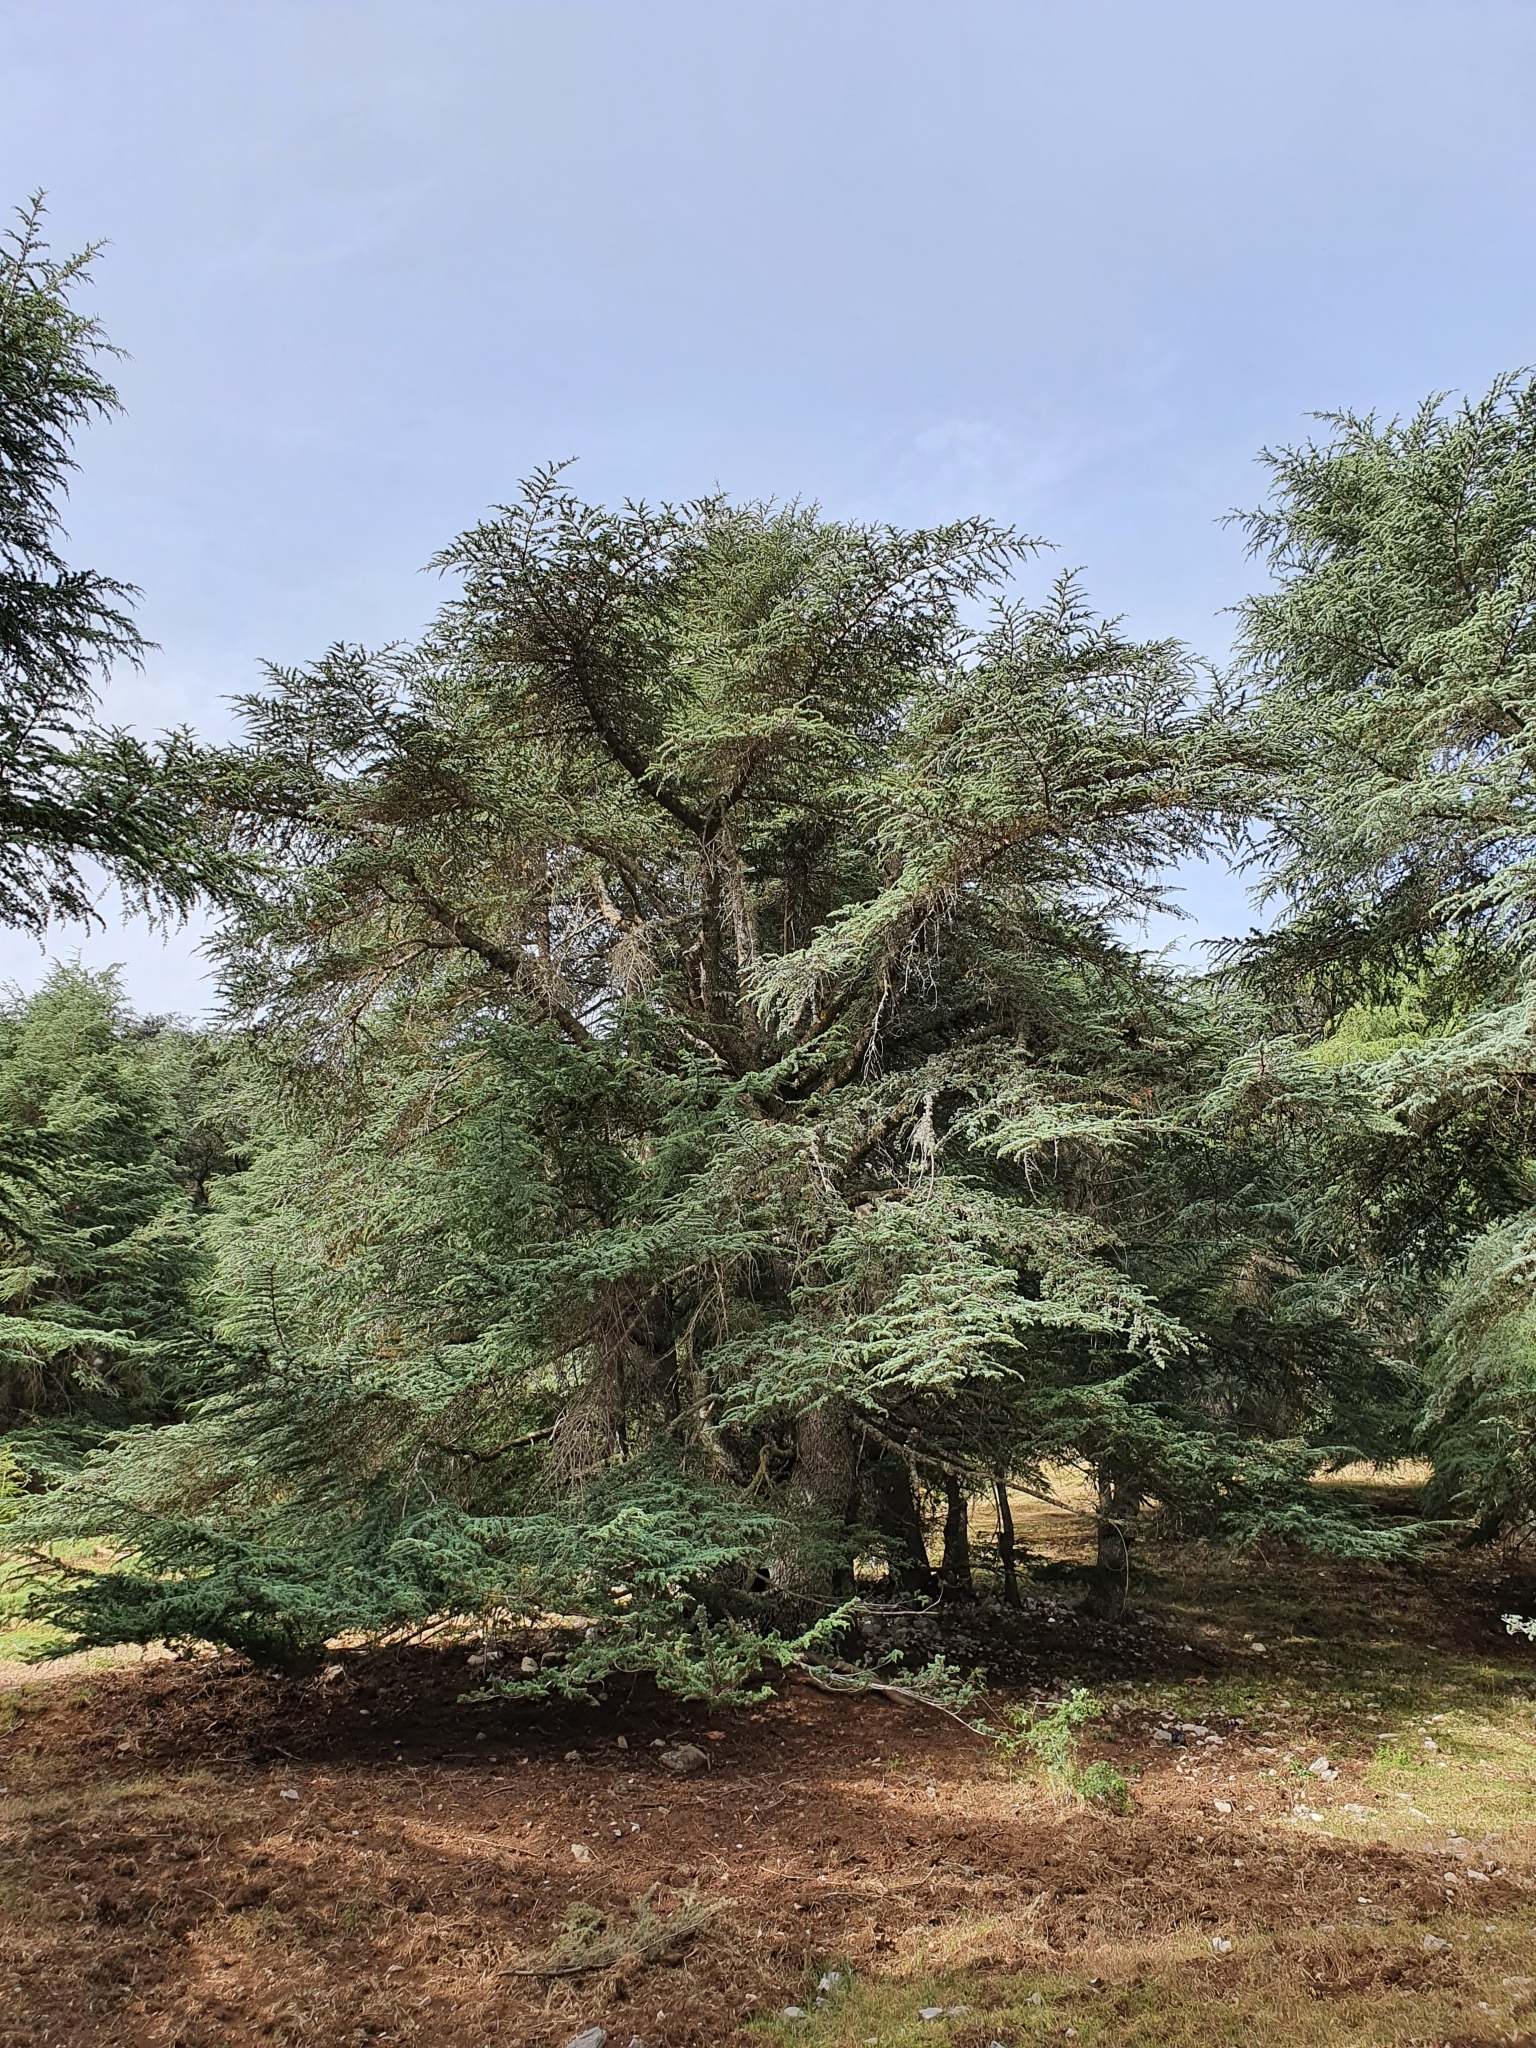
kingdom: Plantae
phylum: Tracheophyta
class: Pinopsida
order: Pinales
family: Pinaceae
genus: Cedrus
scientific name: Cedrus atlantica
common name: Atlas cedar
